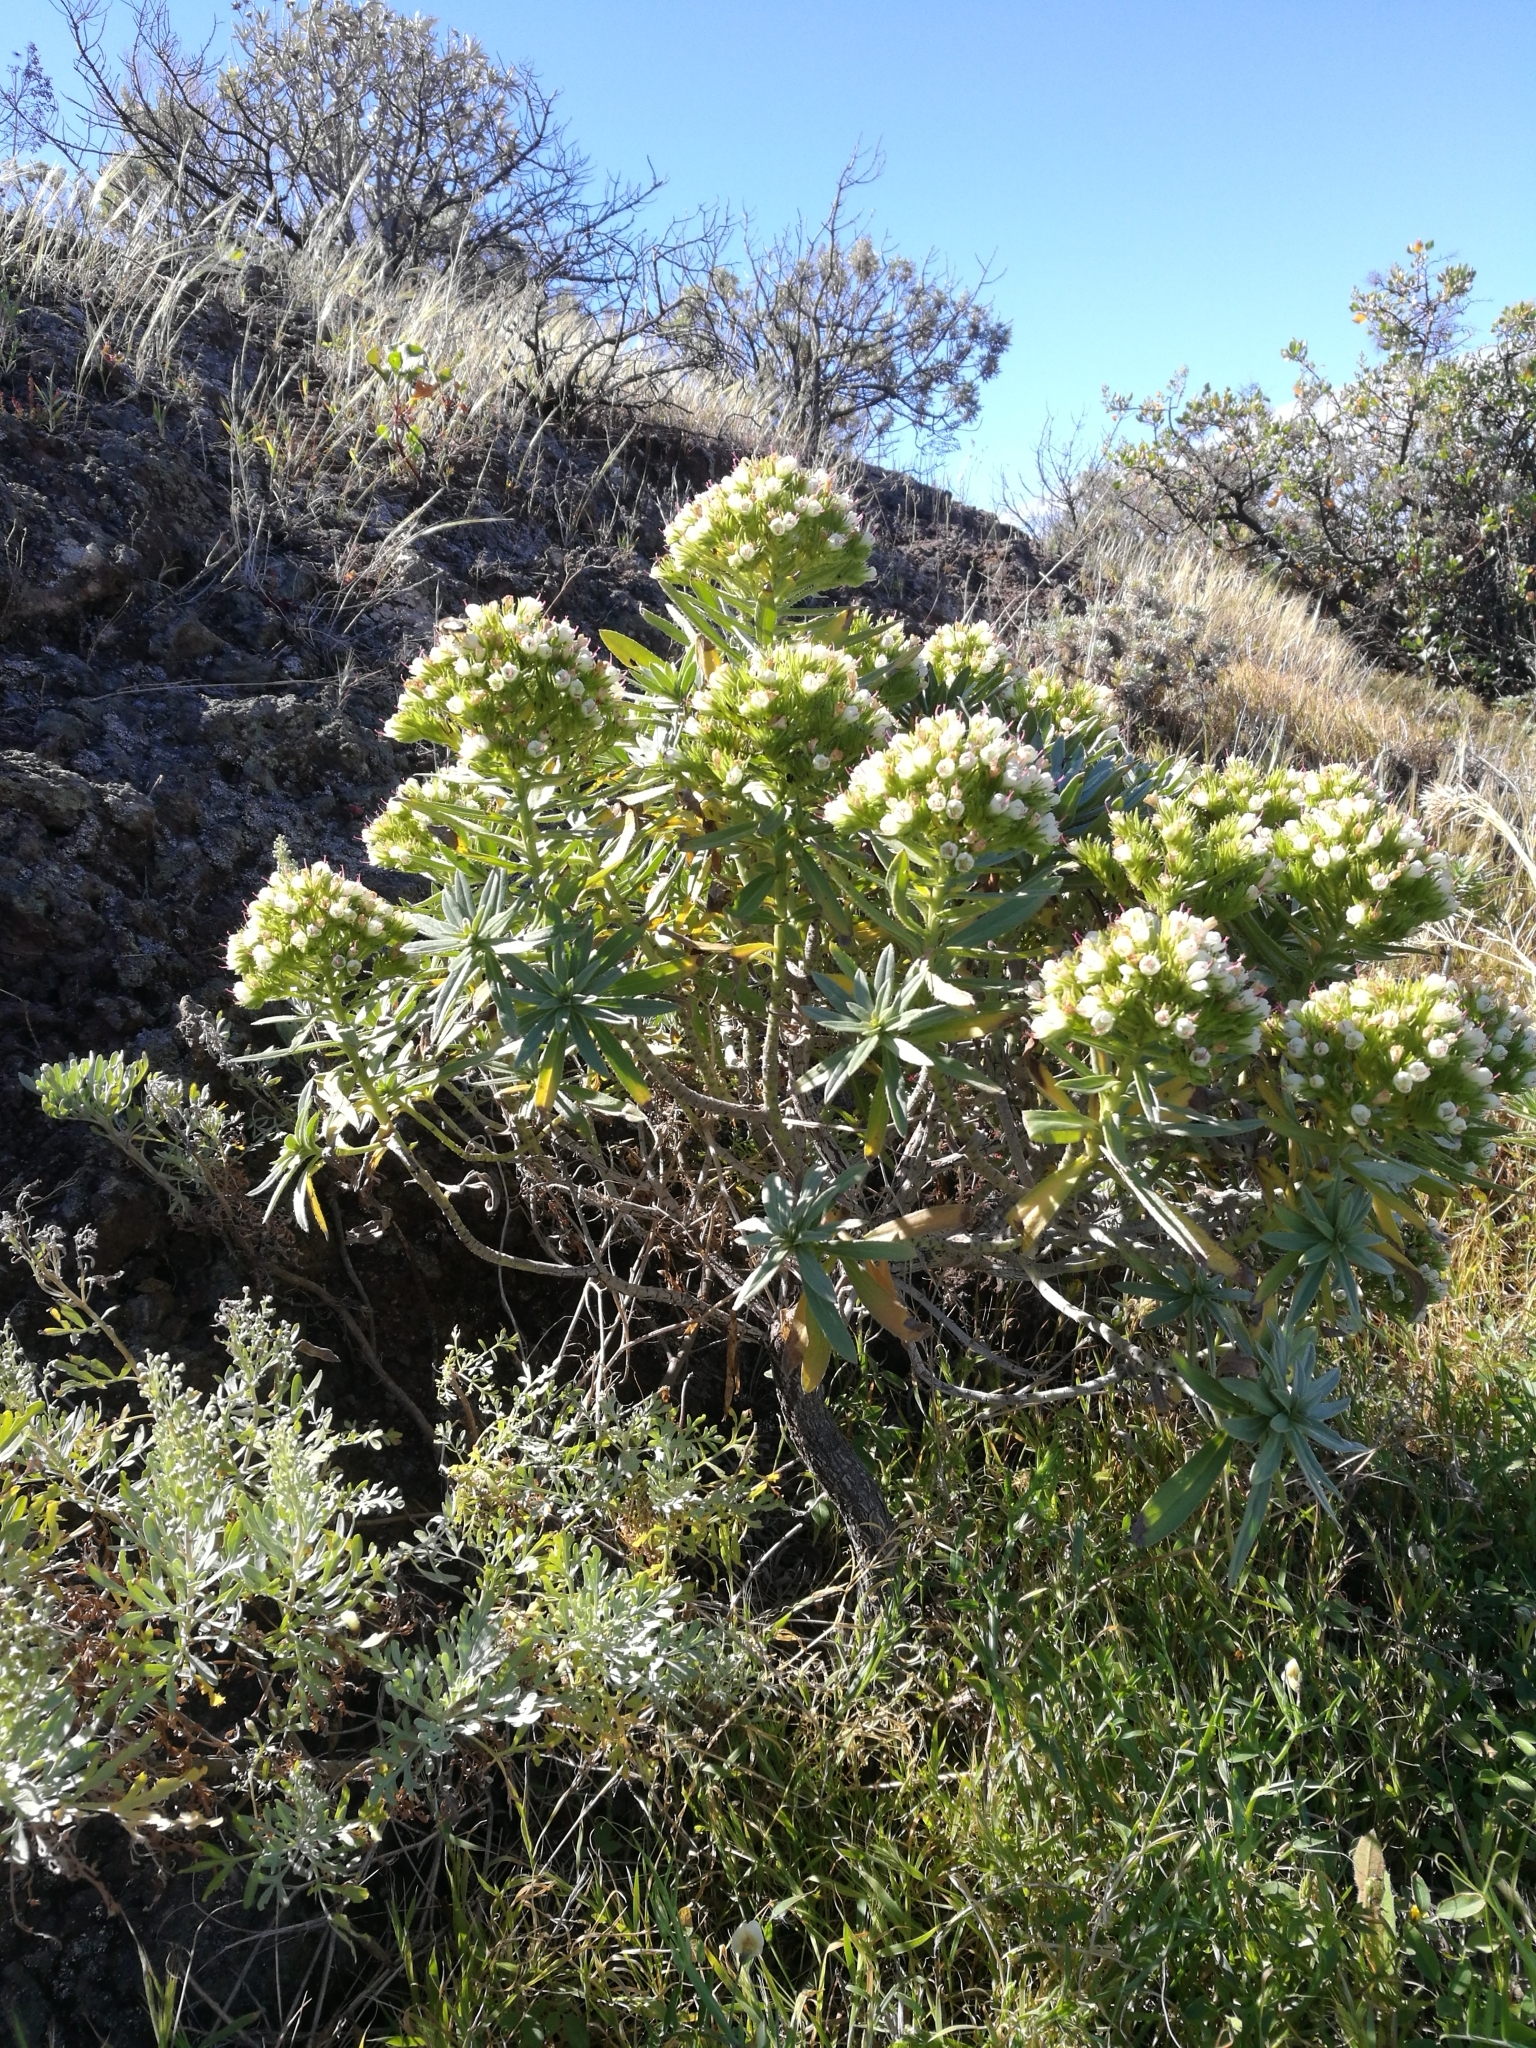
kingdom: Plantae
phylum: Tracheophyta
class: Magnoliopsida
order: Boraginales
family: Boraginaceae
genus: Echium
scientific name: Echium brevirame
